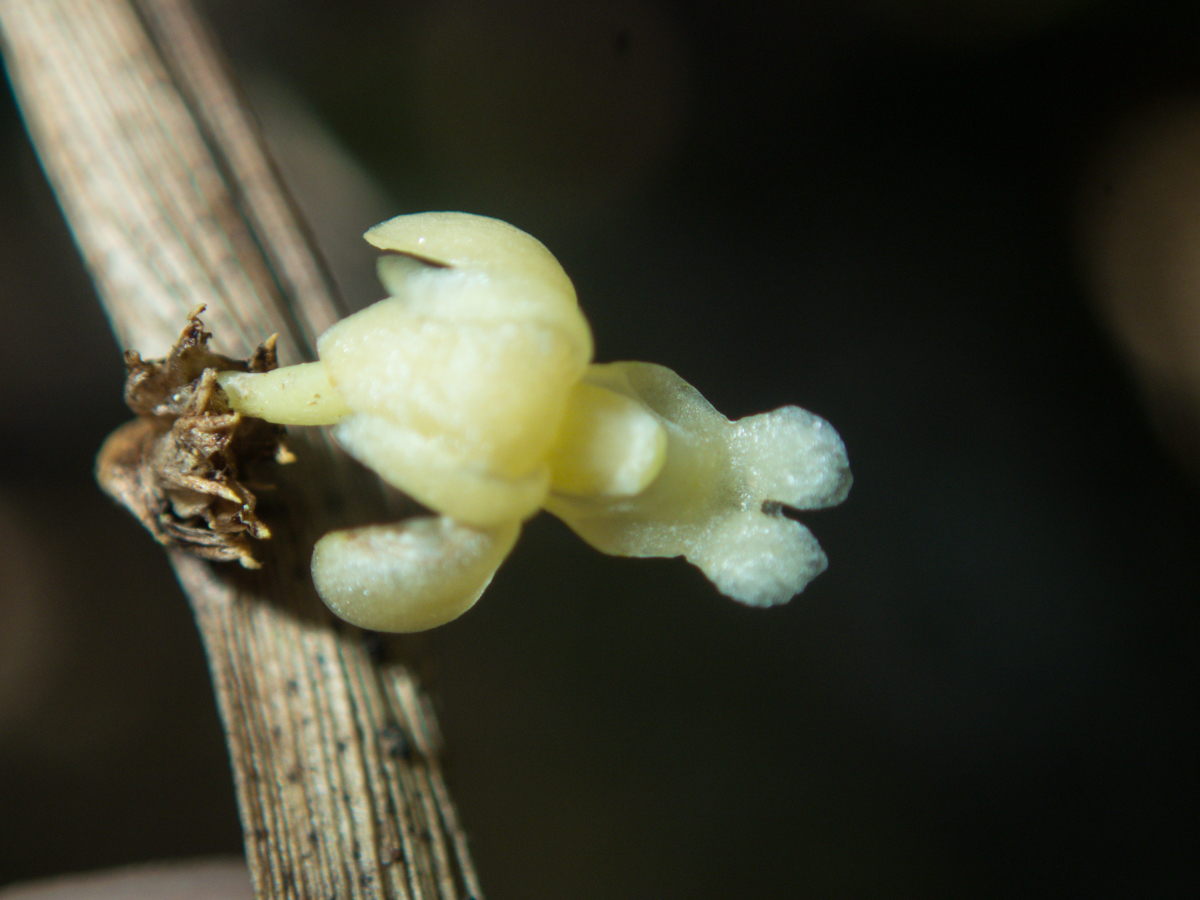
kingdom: Plantae
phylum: Tracheophyta
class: Liliopsida
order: Asparagales
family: Orchidaceae
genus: Dendrobium
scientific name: Dendrobium aloifolium
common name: Aloe-like dendrobium
